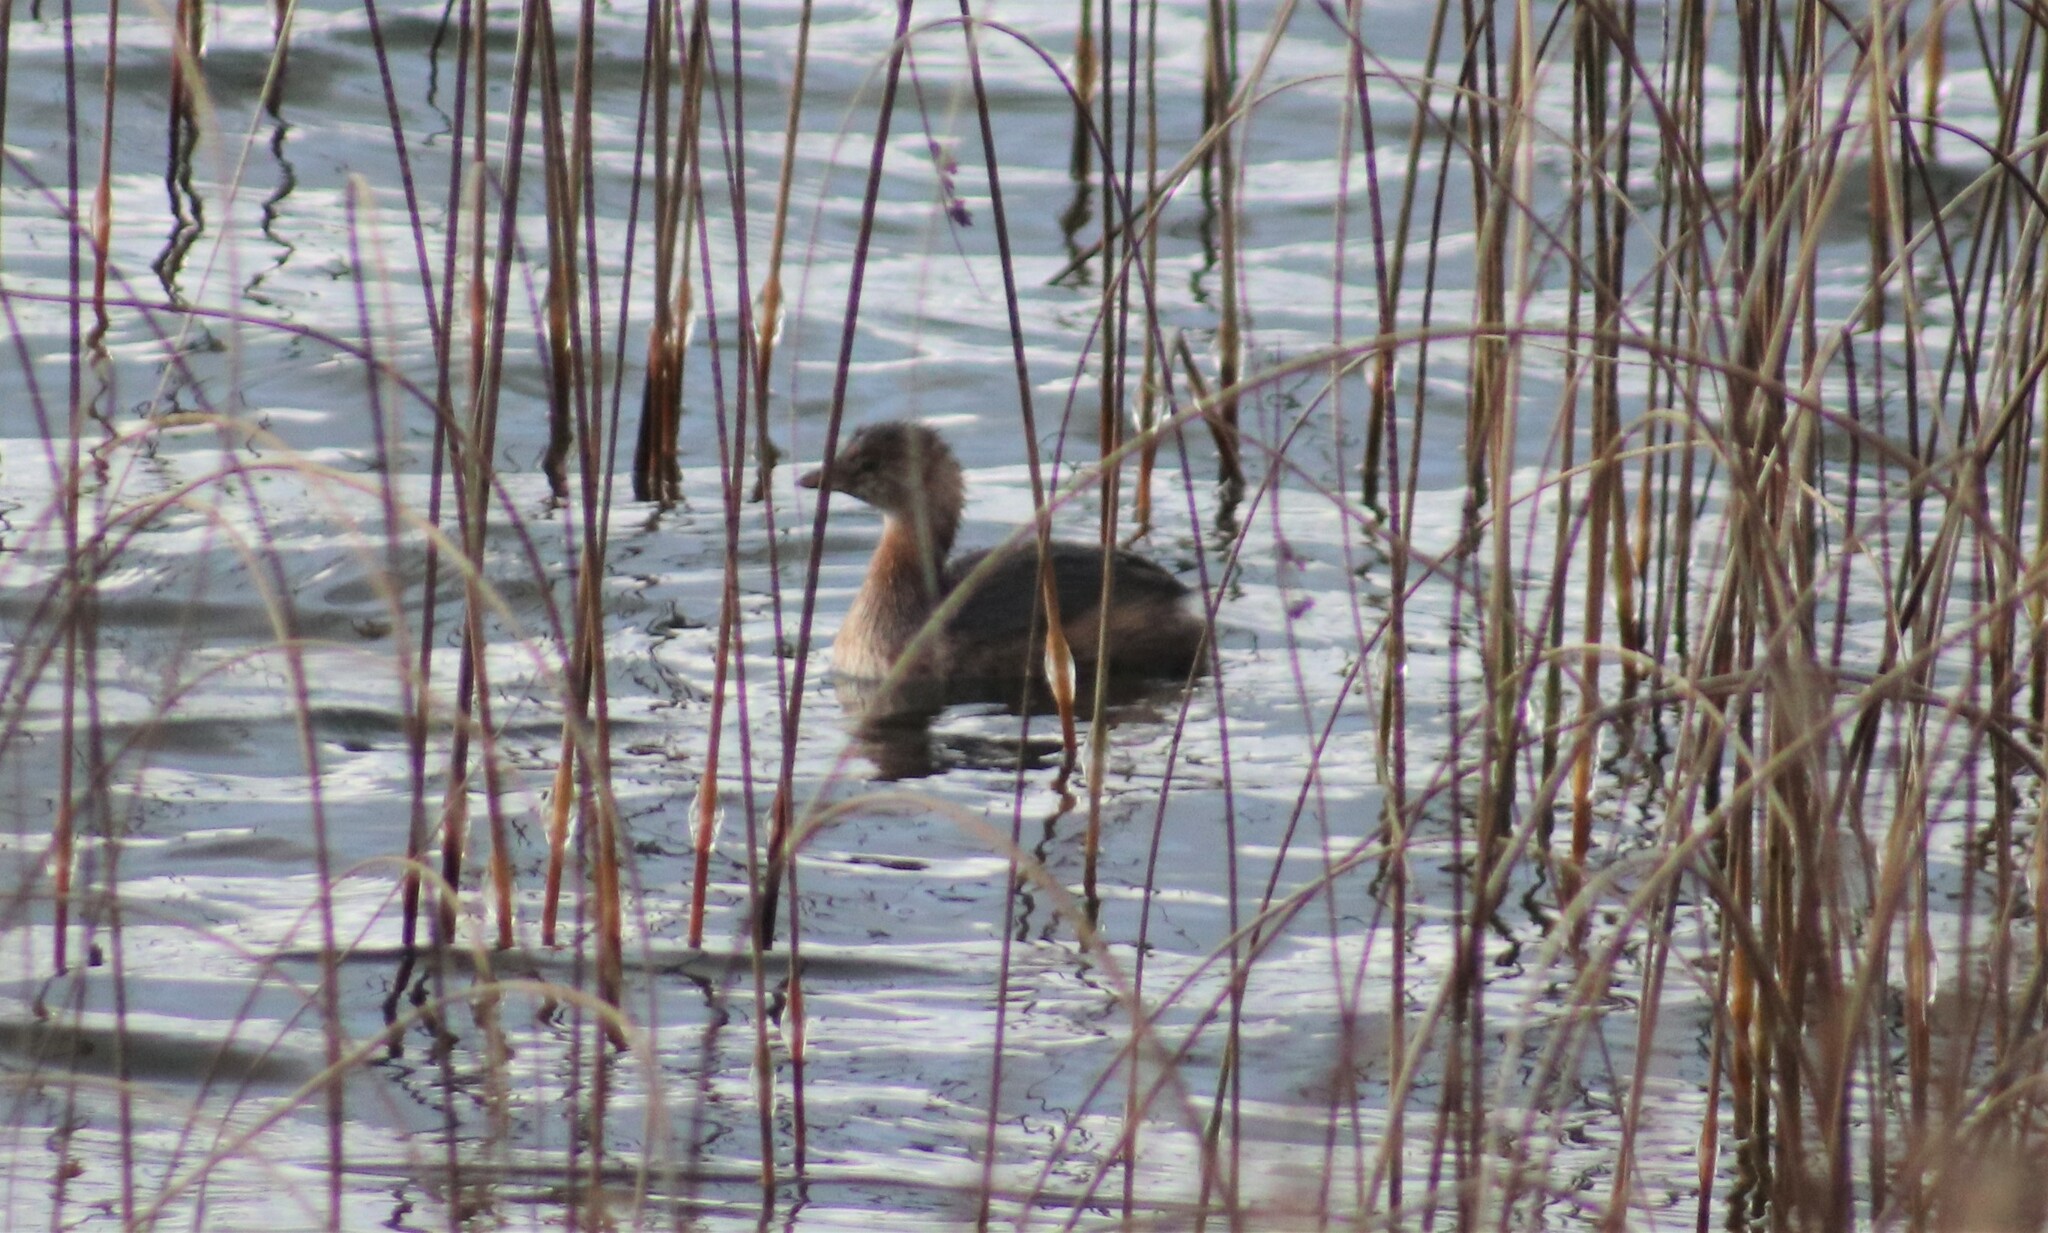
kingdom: Animalia
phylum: Chordata
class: Aves
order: Podicipediformes
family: Podicipedidae
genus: Podilymbus
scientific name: Podilymbus podiceps
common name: Pied-billed grebe
